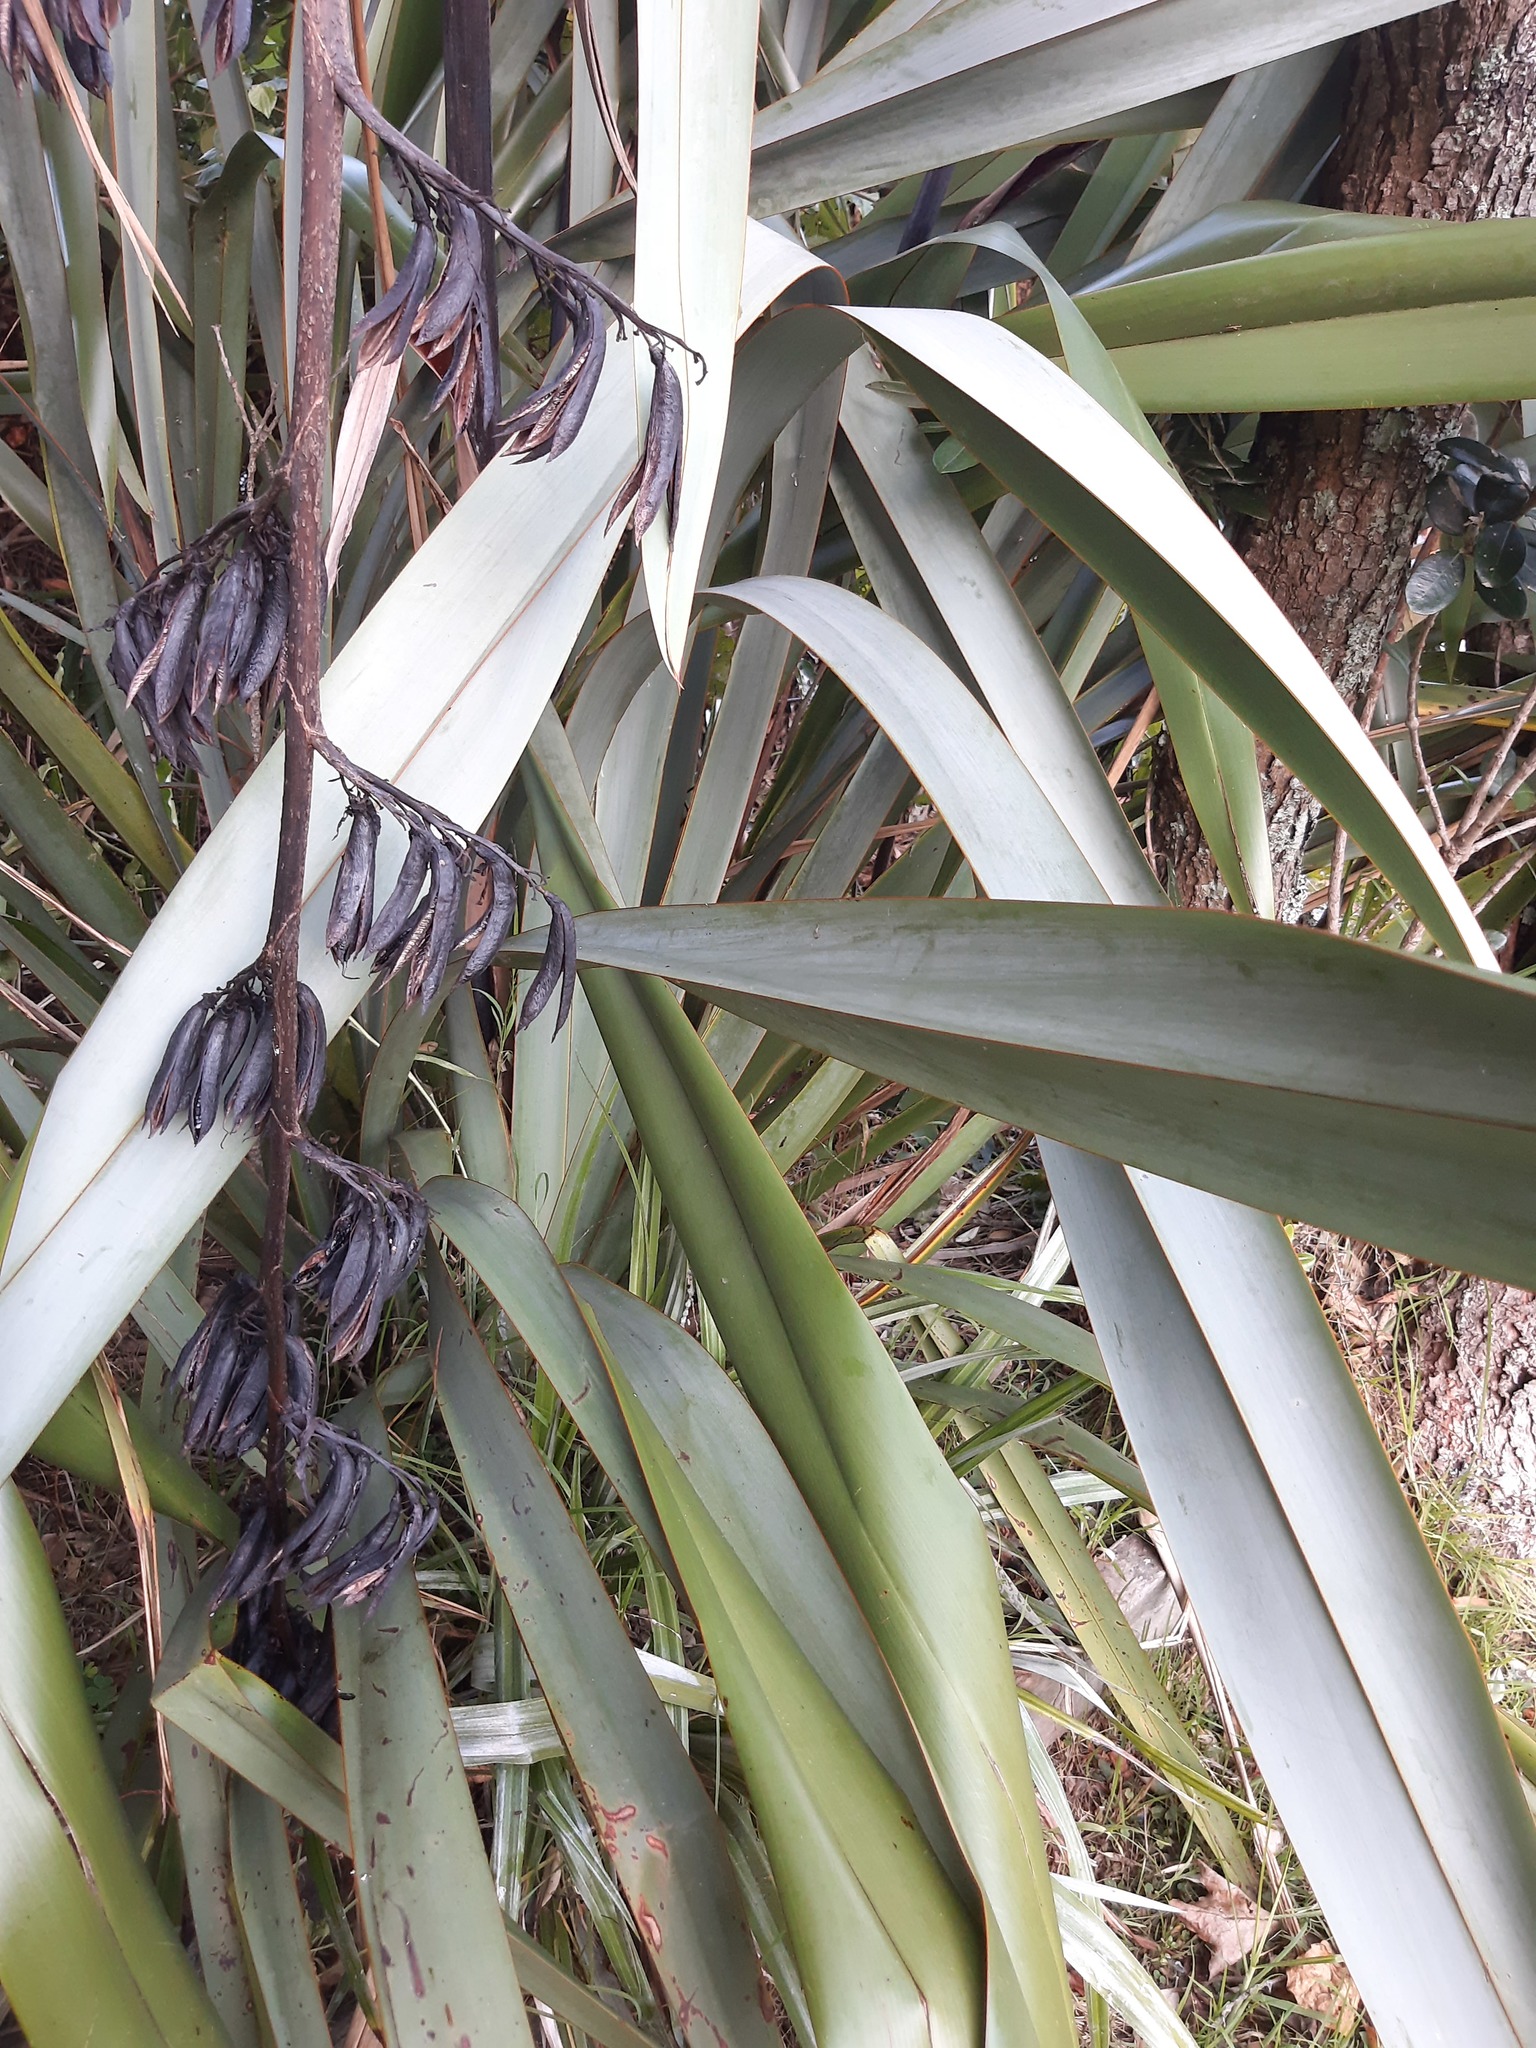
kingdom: Plantae
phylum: Tracheophyta
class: Liliopsida
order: Asparagales
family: Asphodelaceae
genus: Phormium
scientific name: Phormium tenax
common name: New zealand flax
